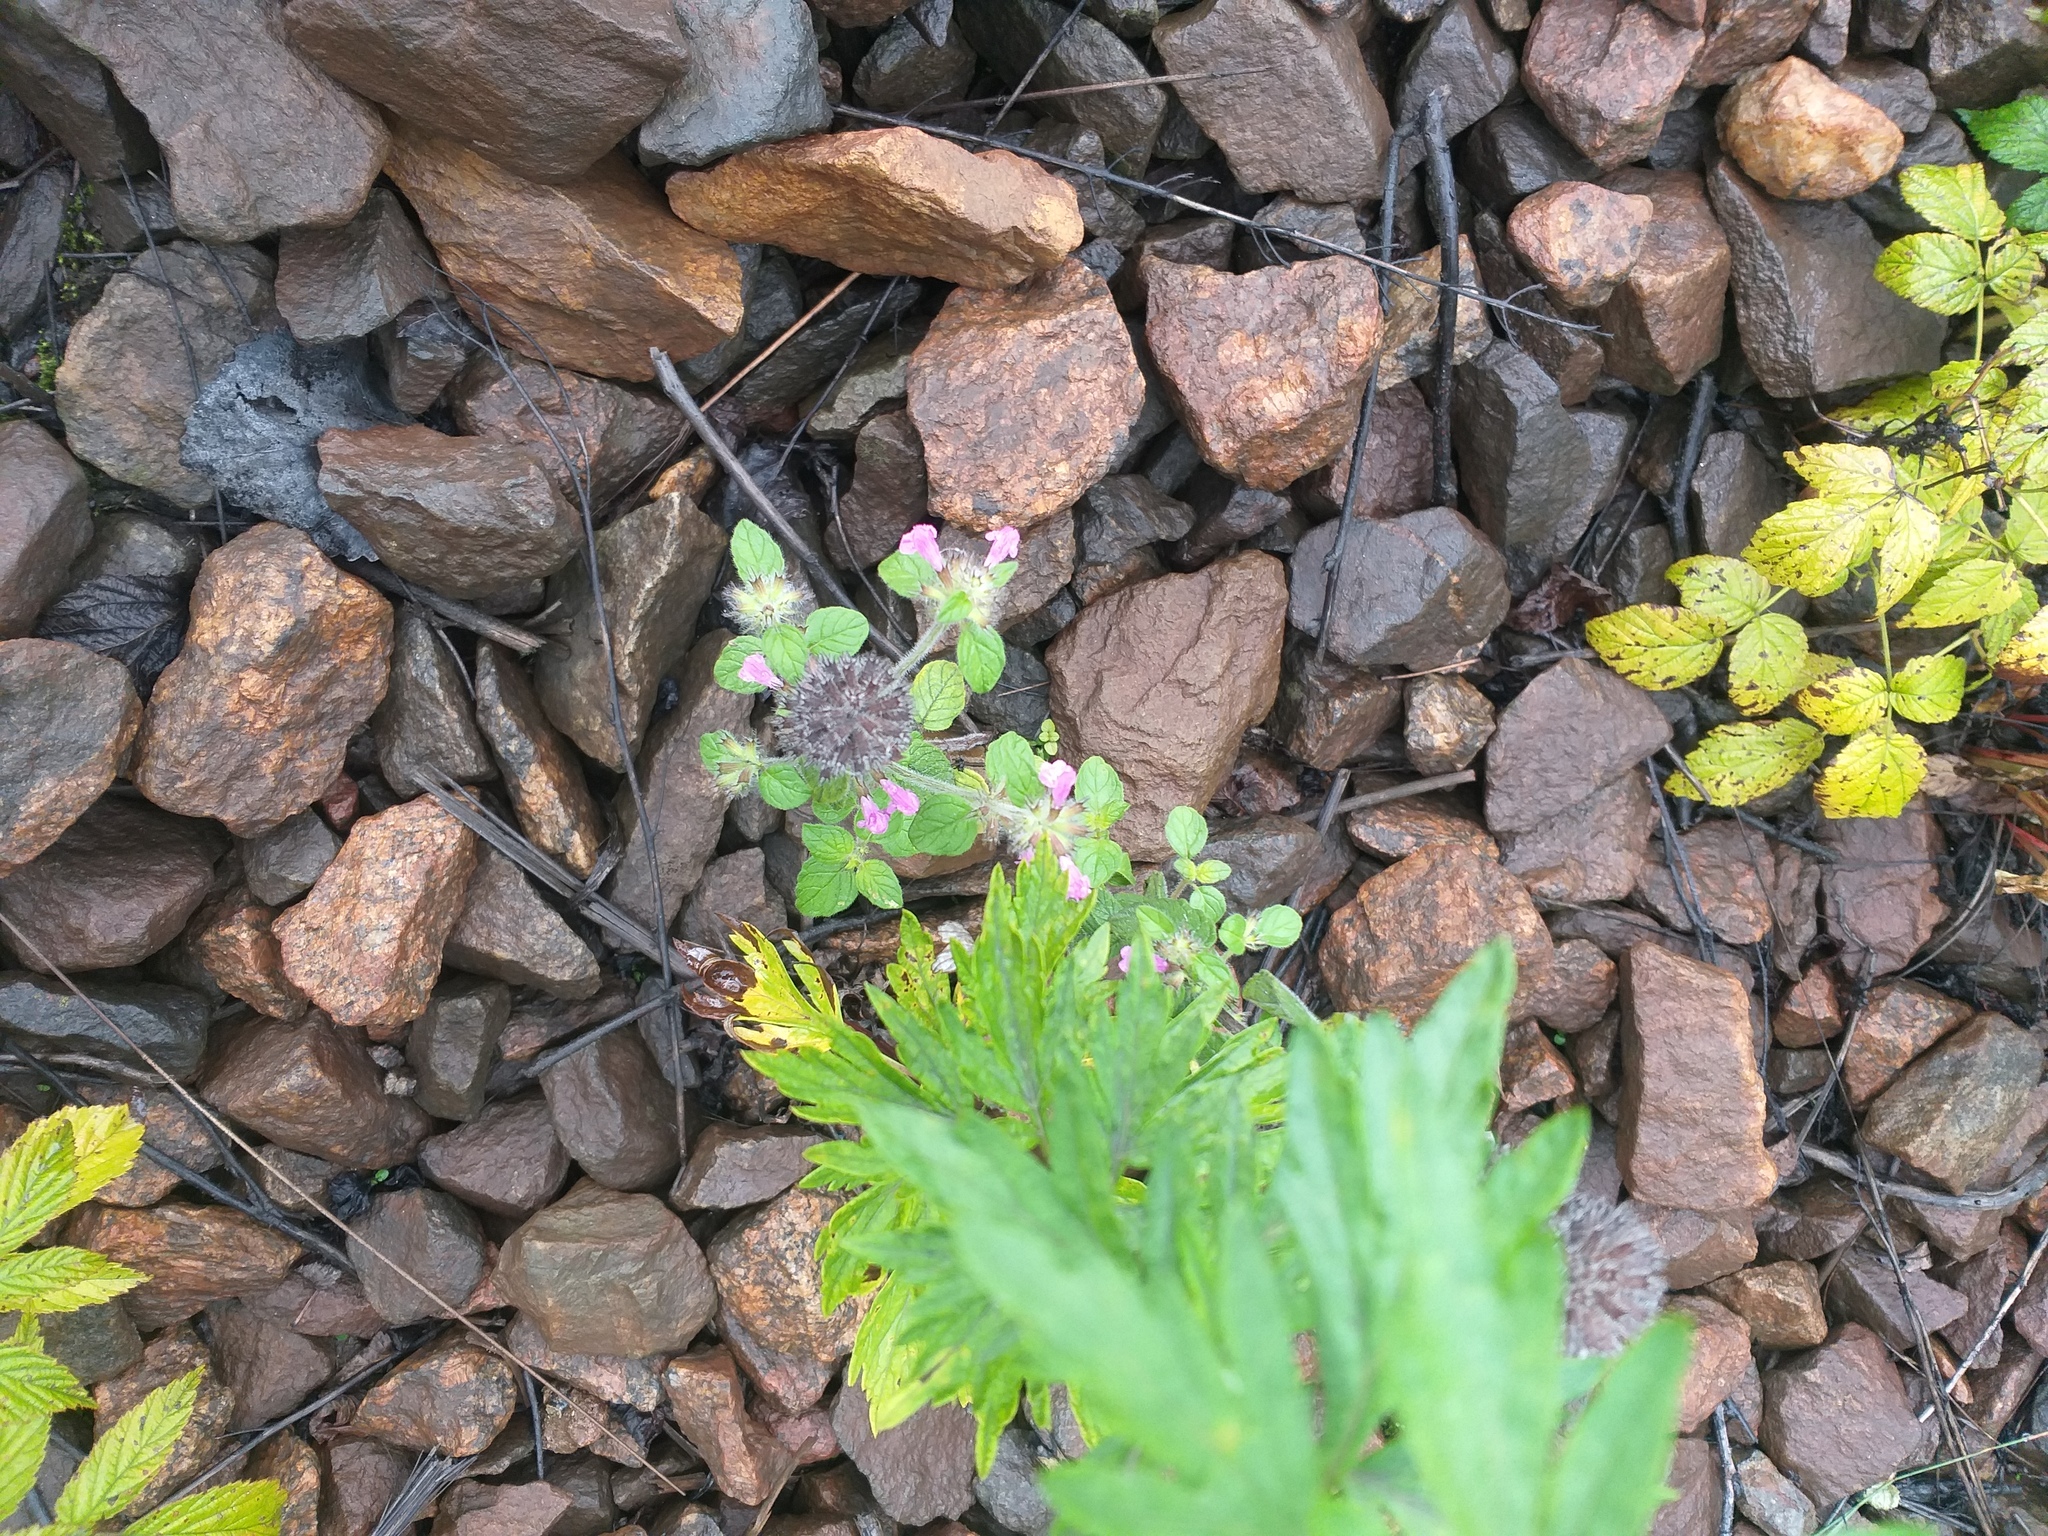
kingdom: Plantae
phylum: Tracheophyta
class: Magnoliopsida
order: Lamiales
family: Lamiaceae
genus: Clinopodium
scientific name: Clinopodium vulgare
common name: Wild basil
